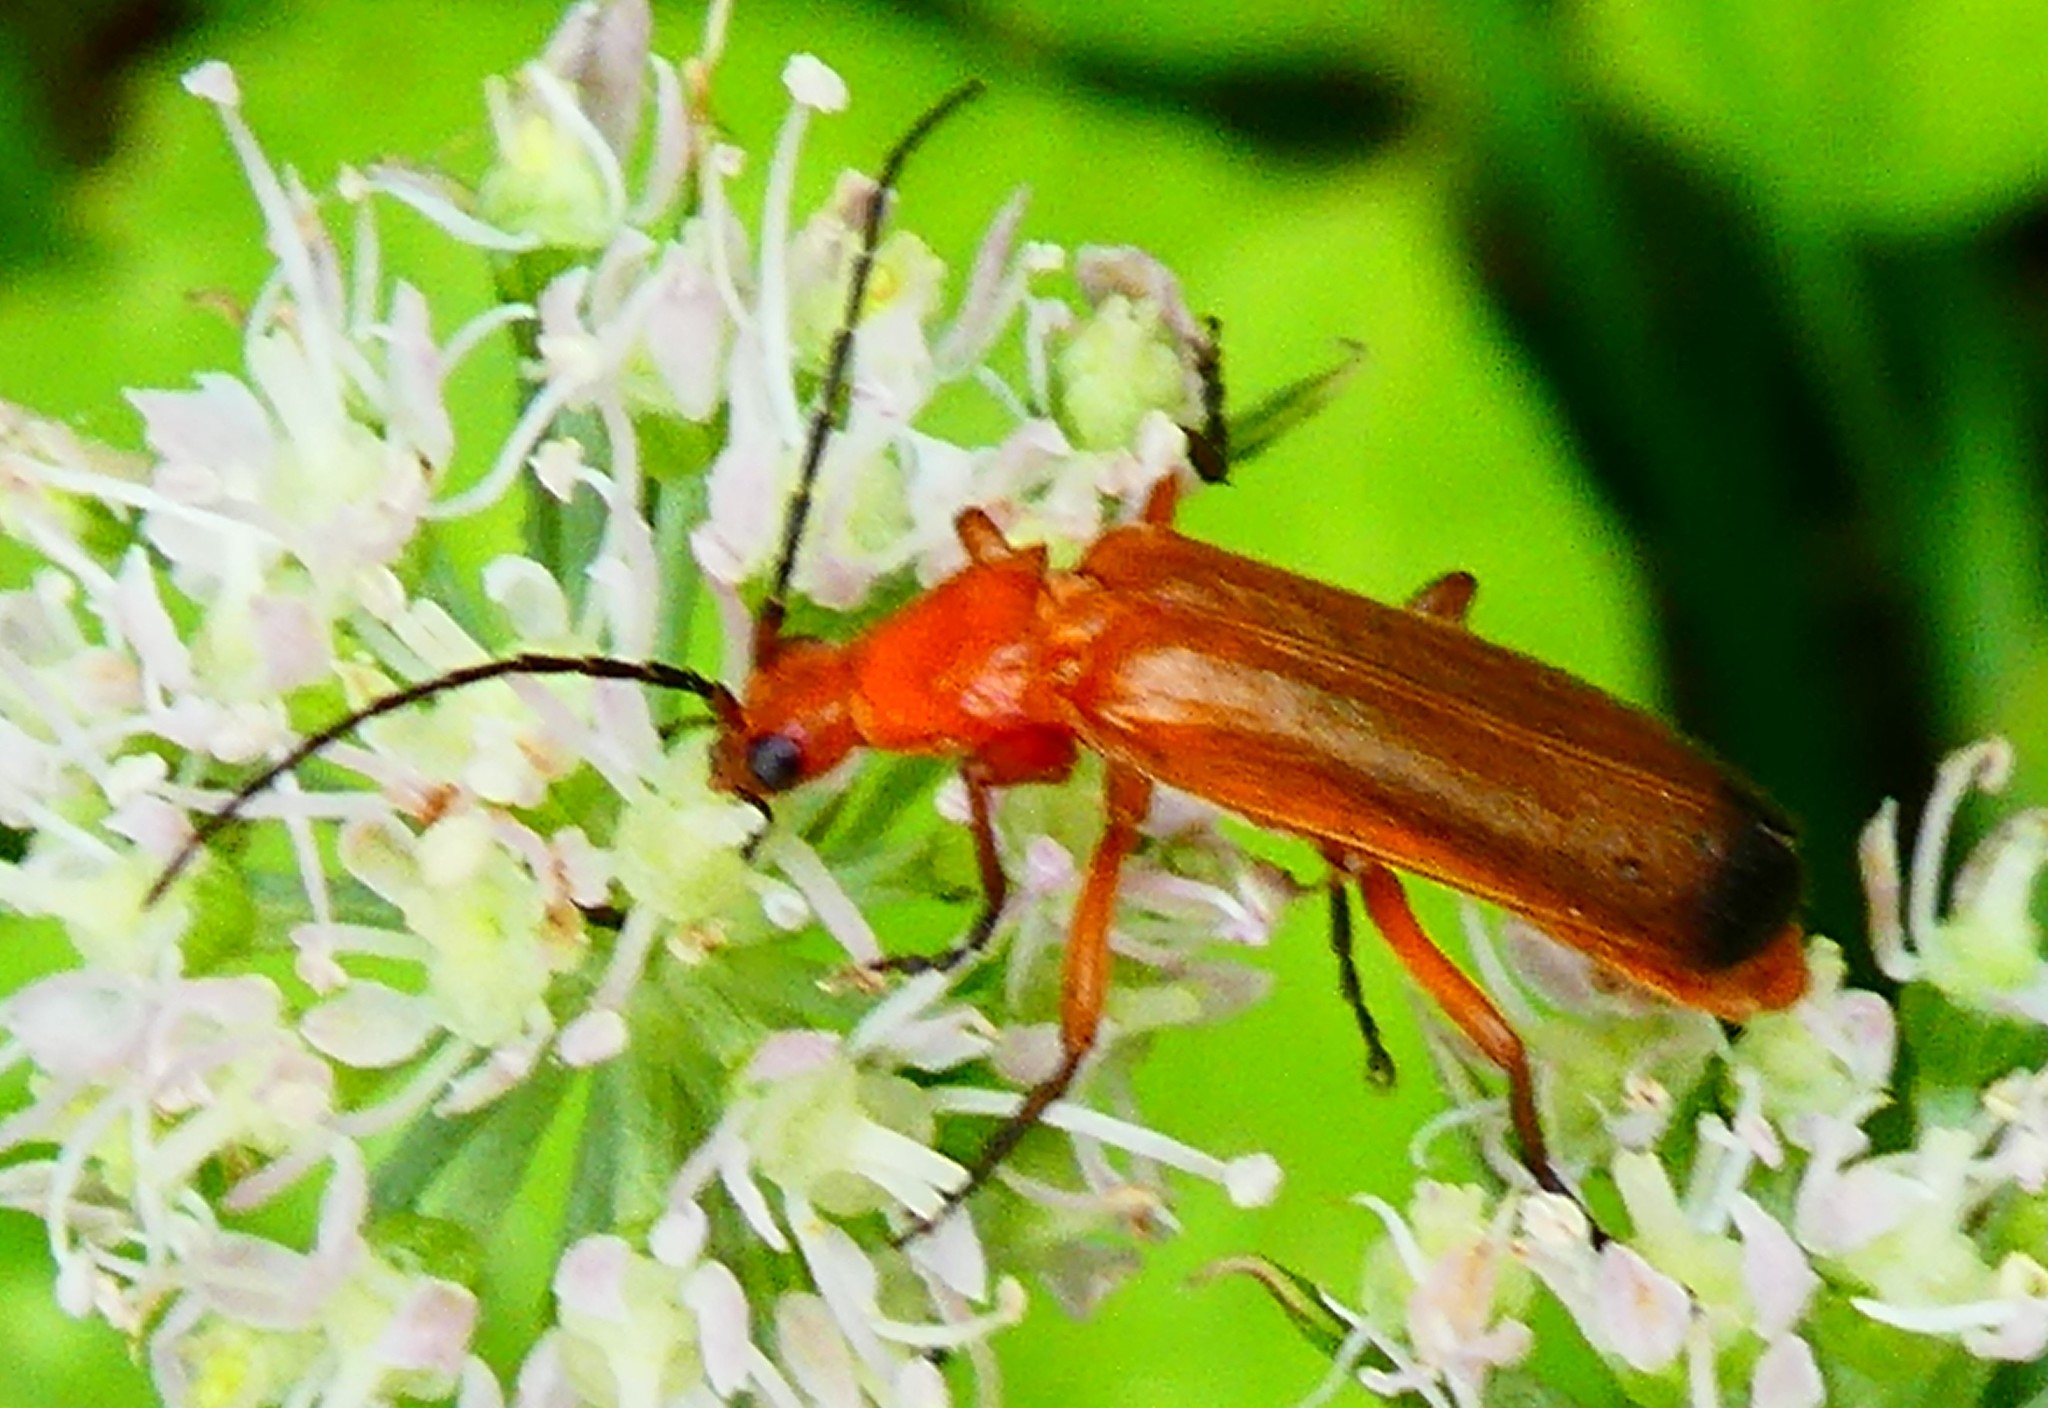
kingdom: Animalia
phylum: Arthropoda
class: Insecta
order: Coleoptera
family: Cantharidae
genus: Rhagonycha
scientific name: Rhagonycha fulva
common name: Common red soldier beetle
